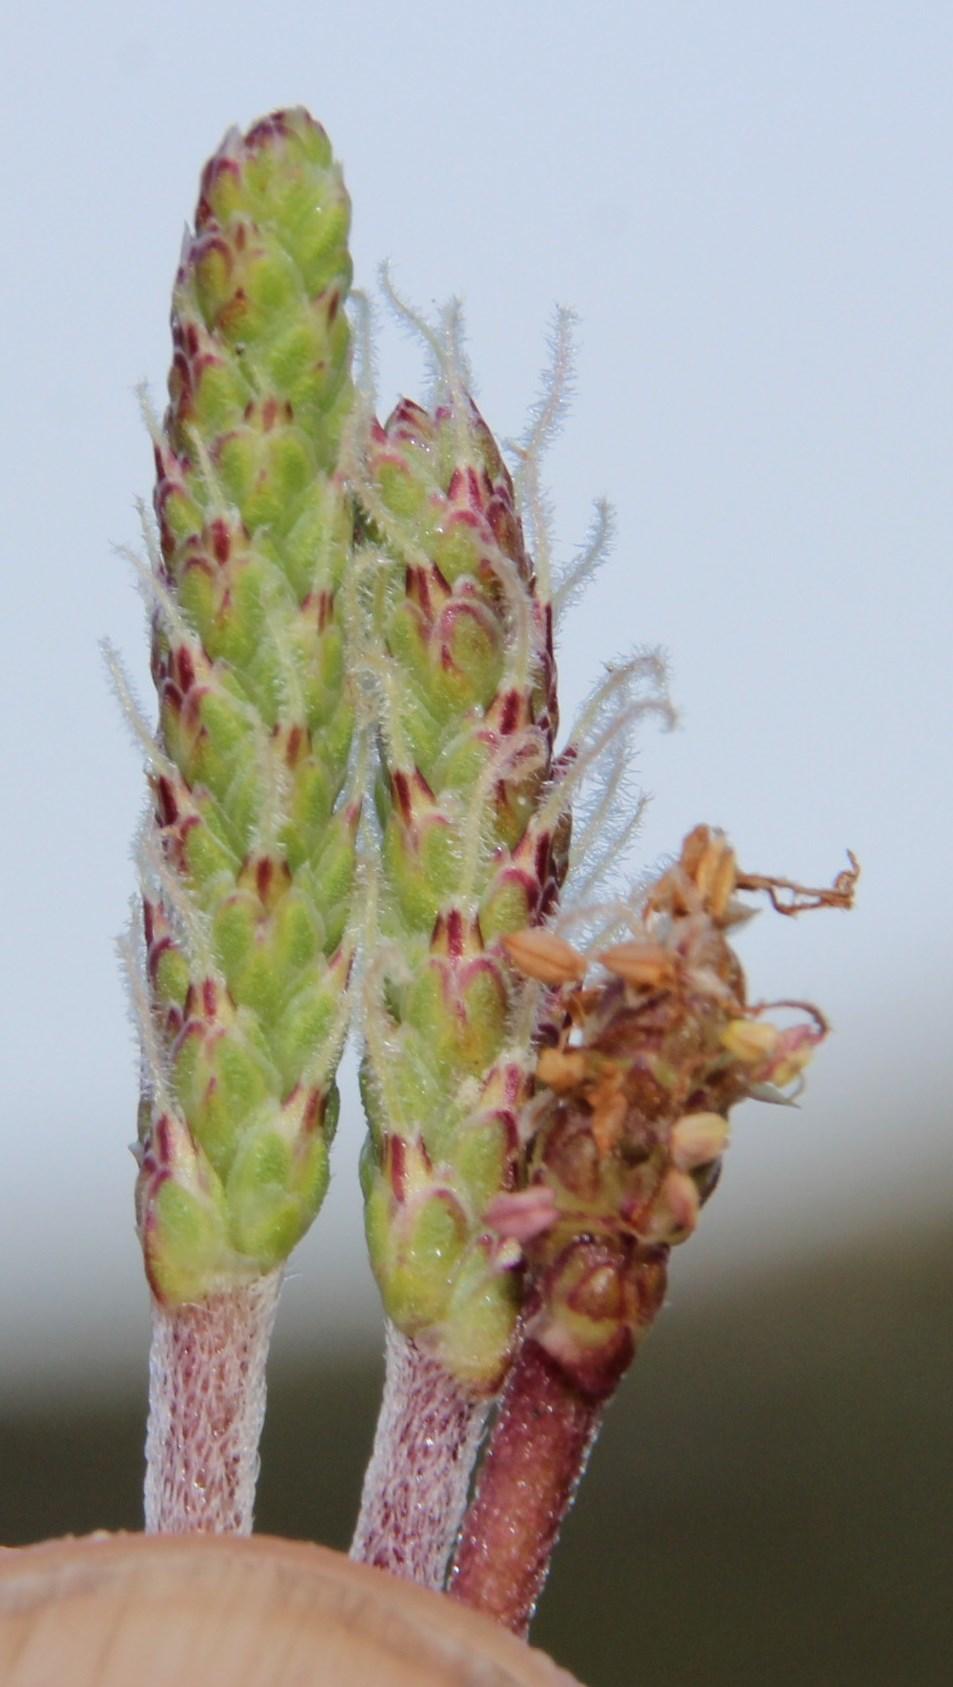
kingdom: Plantae
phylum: Tracheophyta
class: Magnoliopsida
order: Lamiales
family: Plantaginaceae
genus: Plantago
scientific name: Plantago carnosa
